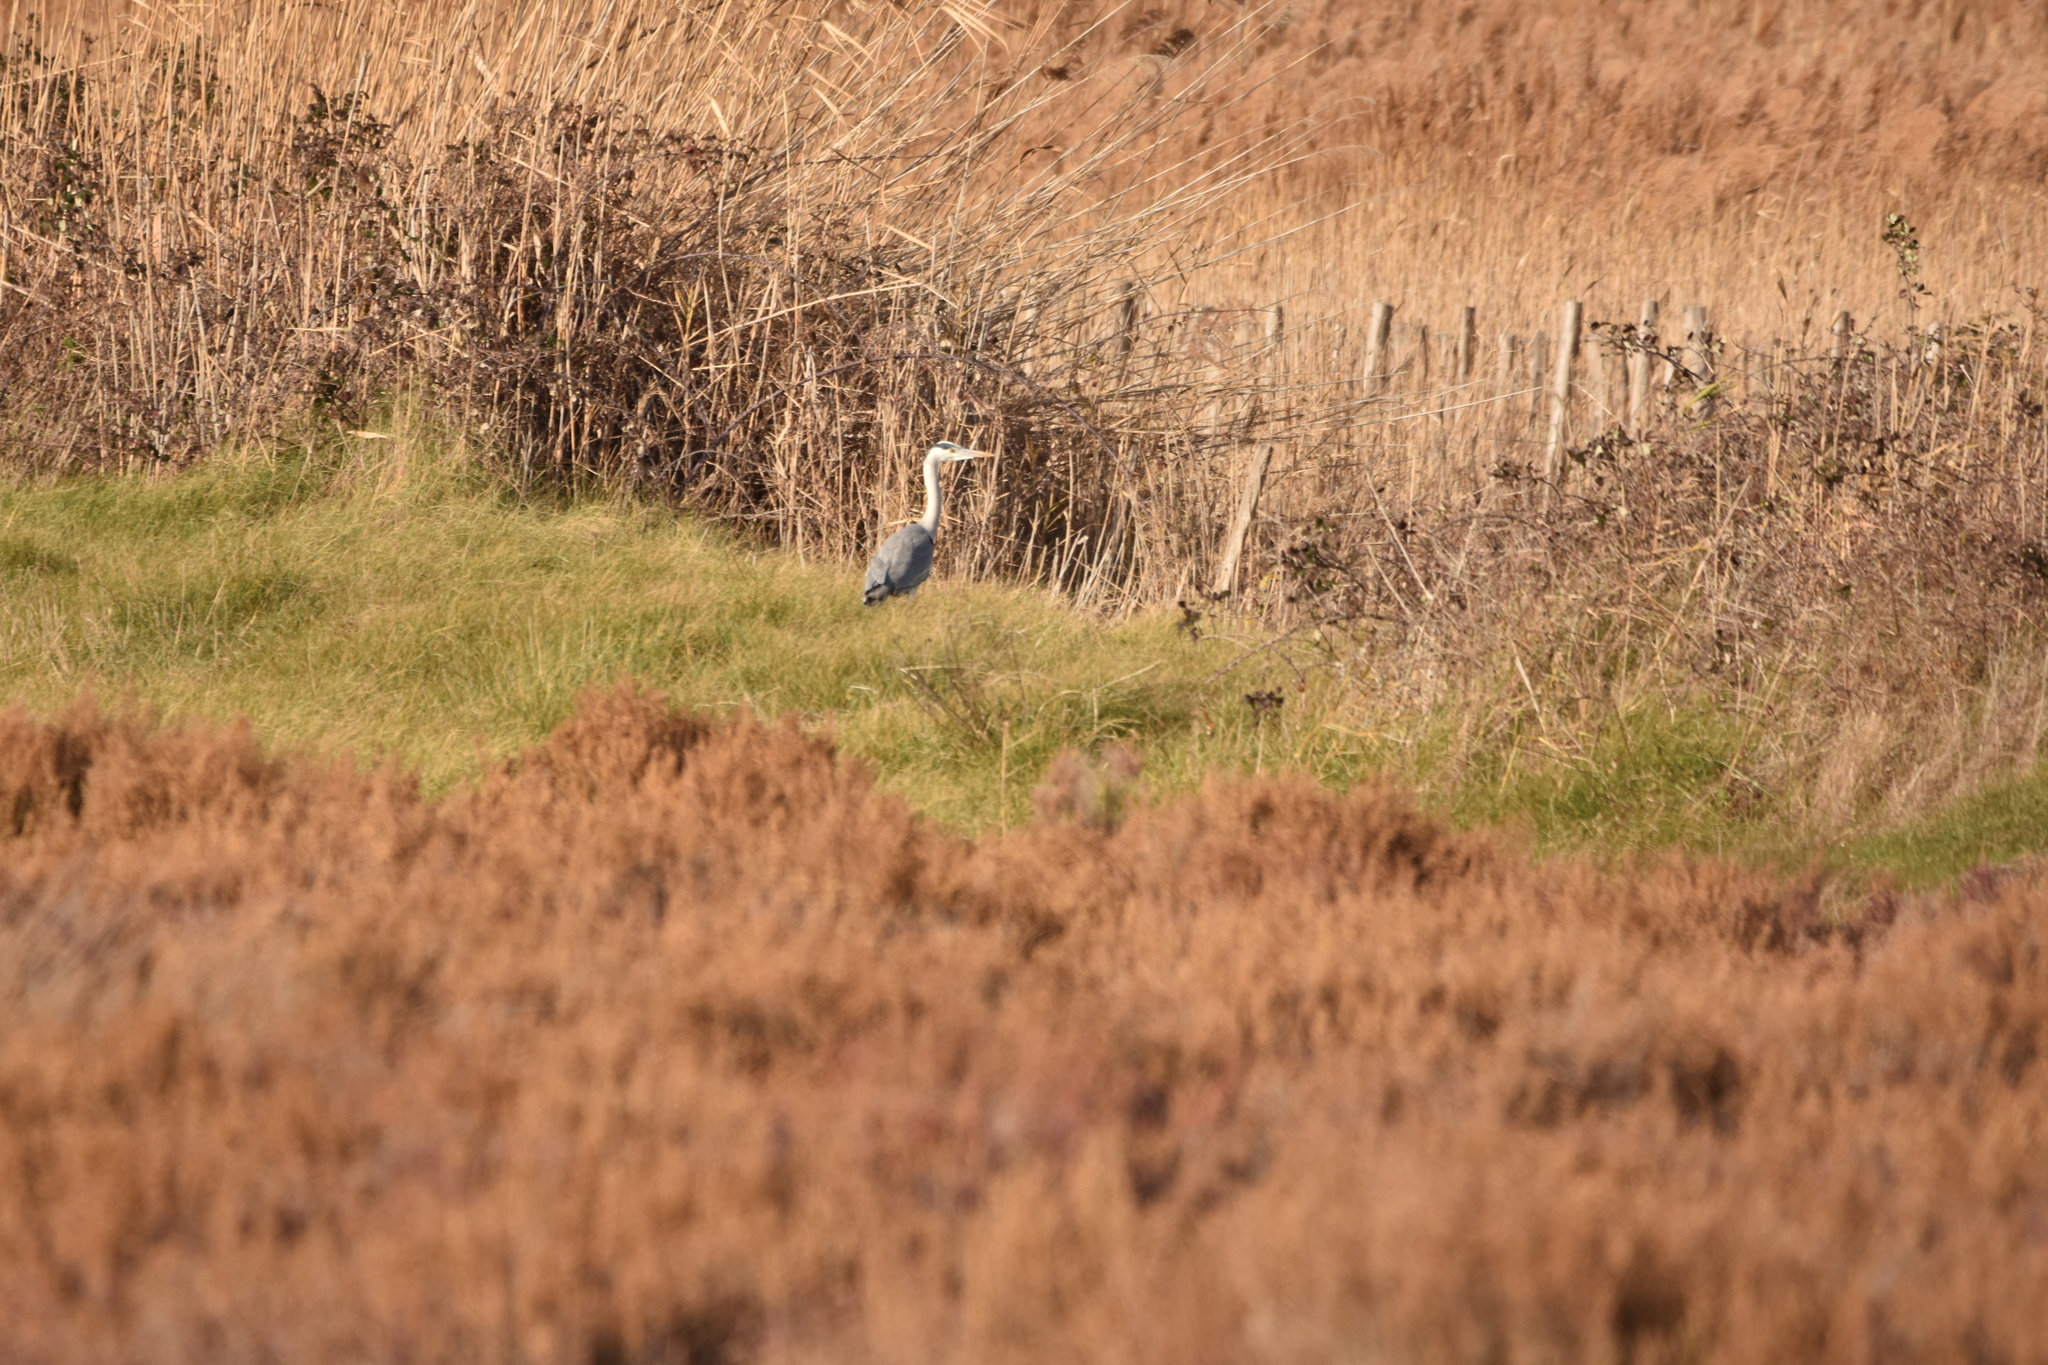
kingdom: Animalia
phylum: Chordata
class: Aves
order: Pelecaniformes
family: Ardeidae
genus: Ardea
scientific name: Ardea cinerea
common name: Grey heron
